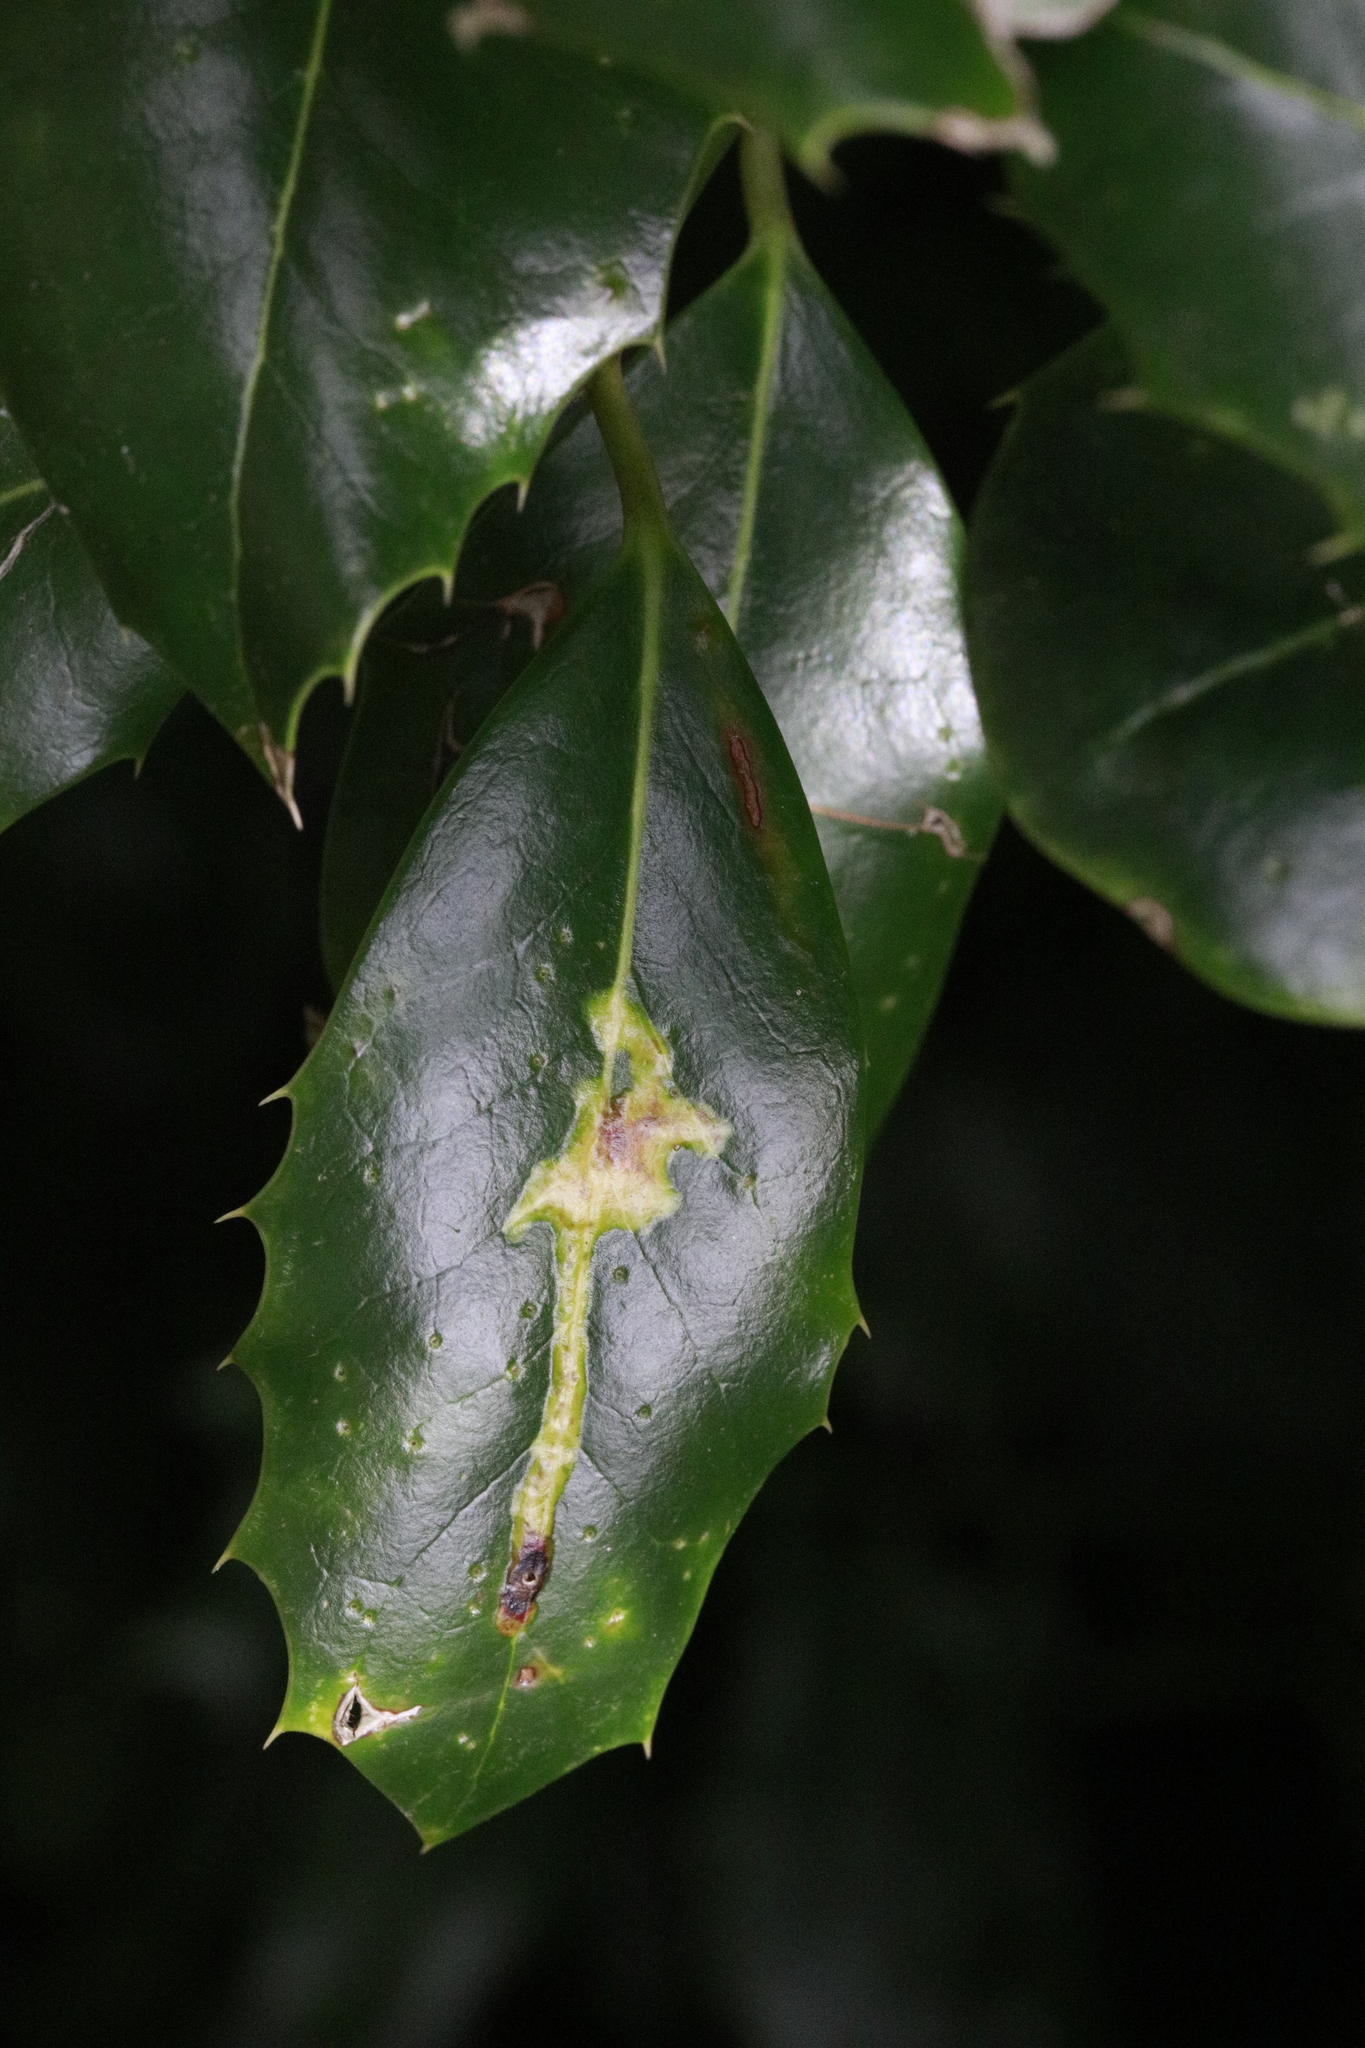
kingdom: Animalia
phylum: Arthropoda
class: Insecta
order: Diptera
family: Agromyzidae
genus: Phytomyza
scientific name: Phytomyza ilicis
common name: Holly leafminer
